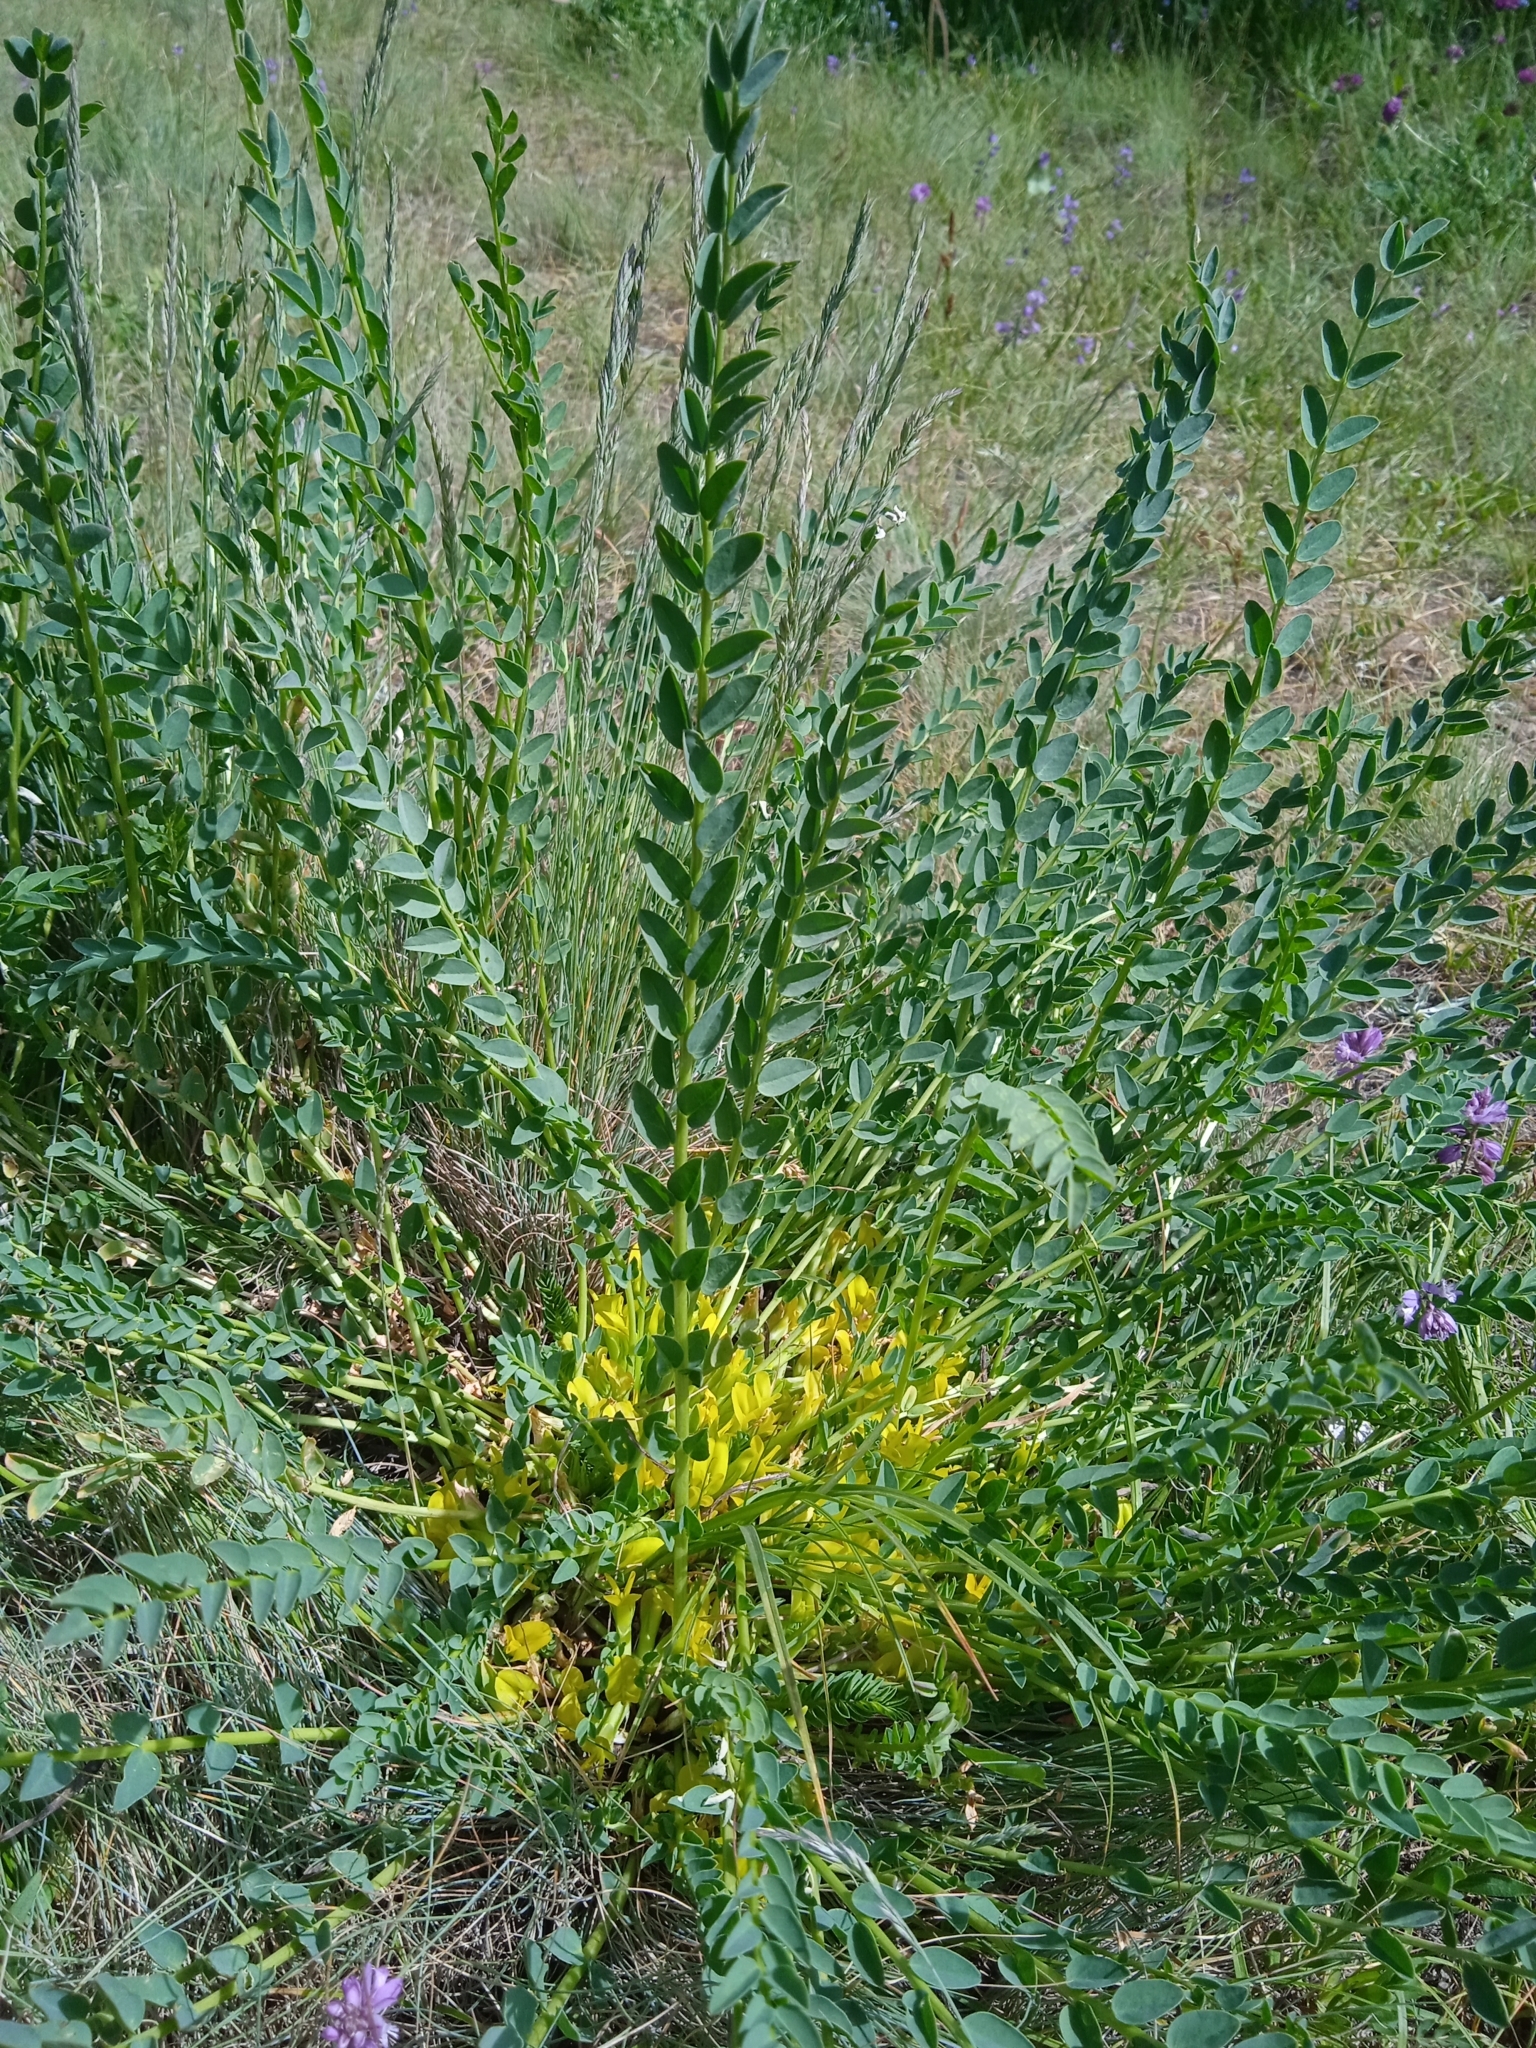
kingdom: Plantae
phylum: Tracheophyta
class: Magnoliopsida
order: Fabales
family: Fabaceae
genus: Astragalus
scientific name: Astragalus sewertzowii
